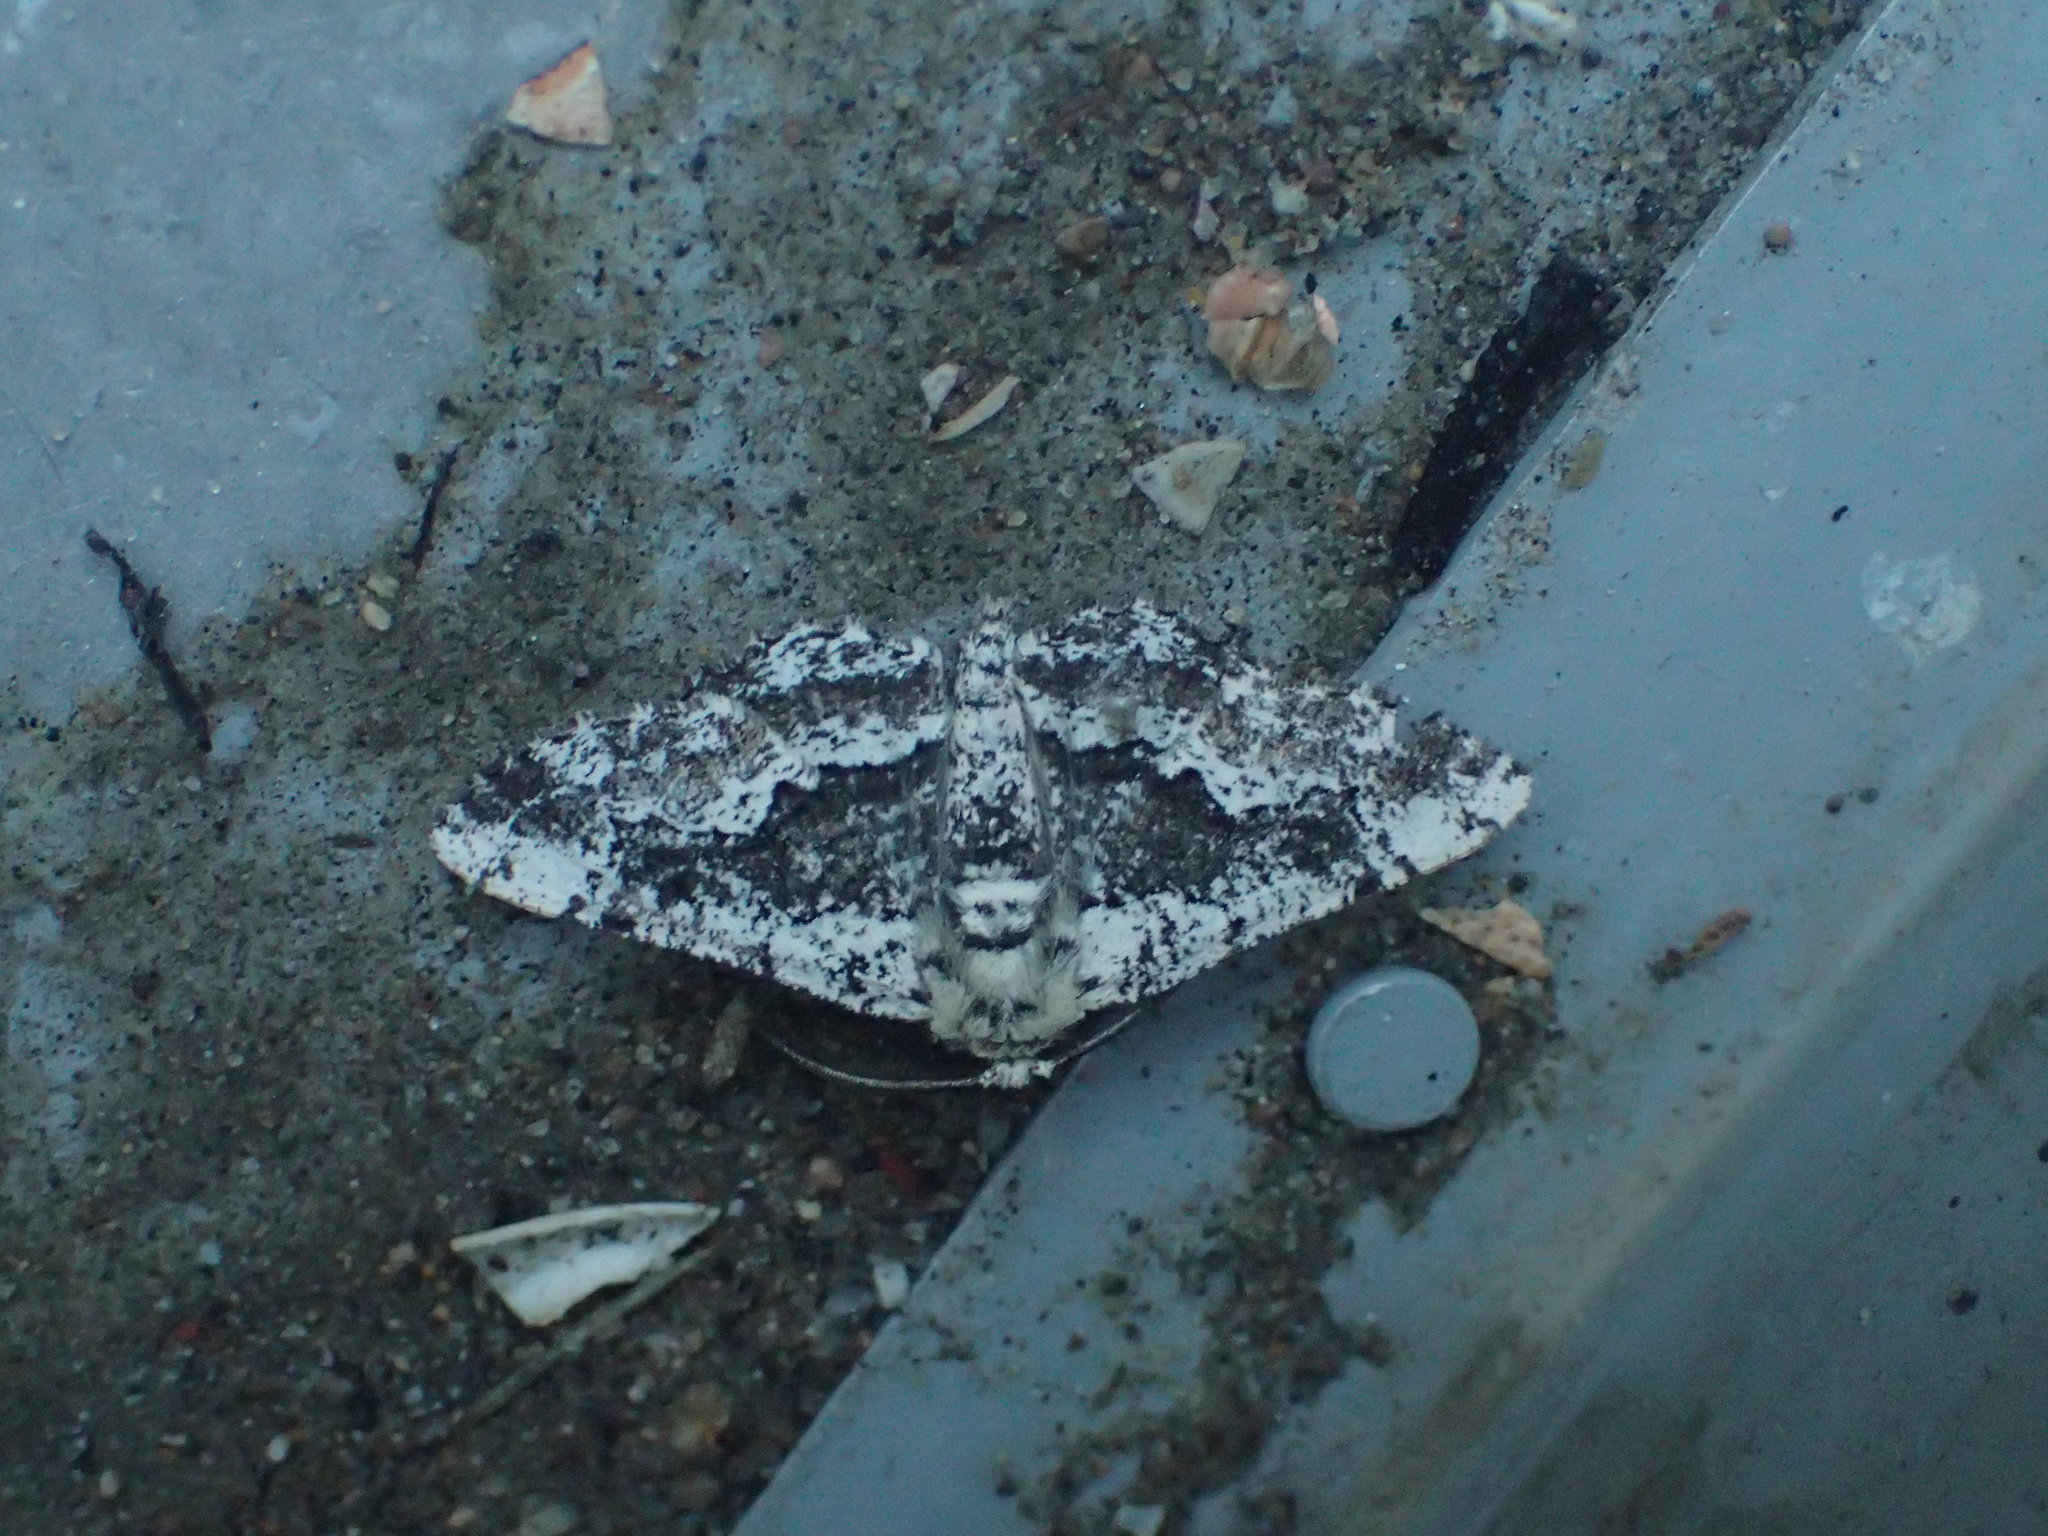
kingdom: Animalia
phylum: Arthropoda
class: Insecta
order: Lepidoptera
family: Geometridae
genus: Phaeoura
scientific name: Phaeoura quernaria
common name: Oak beauty
